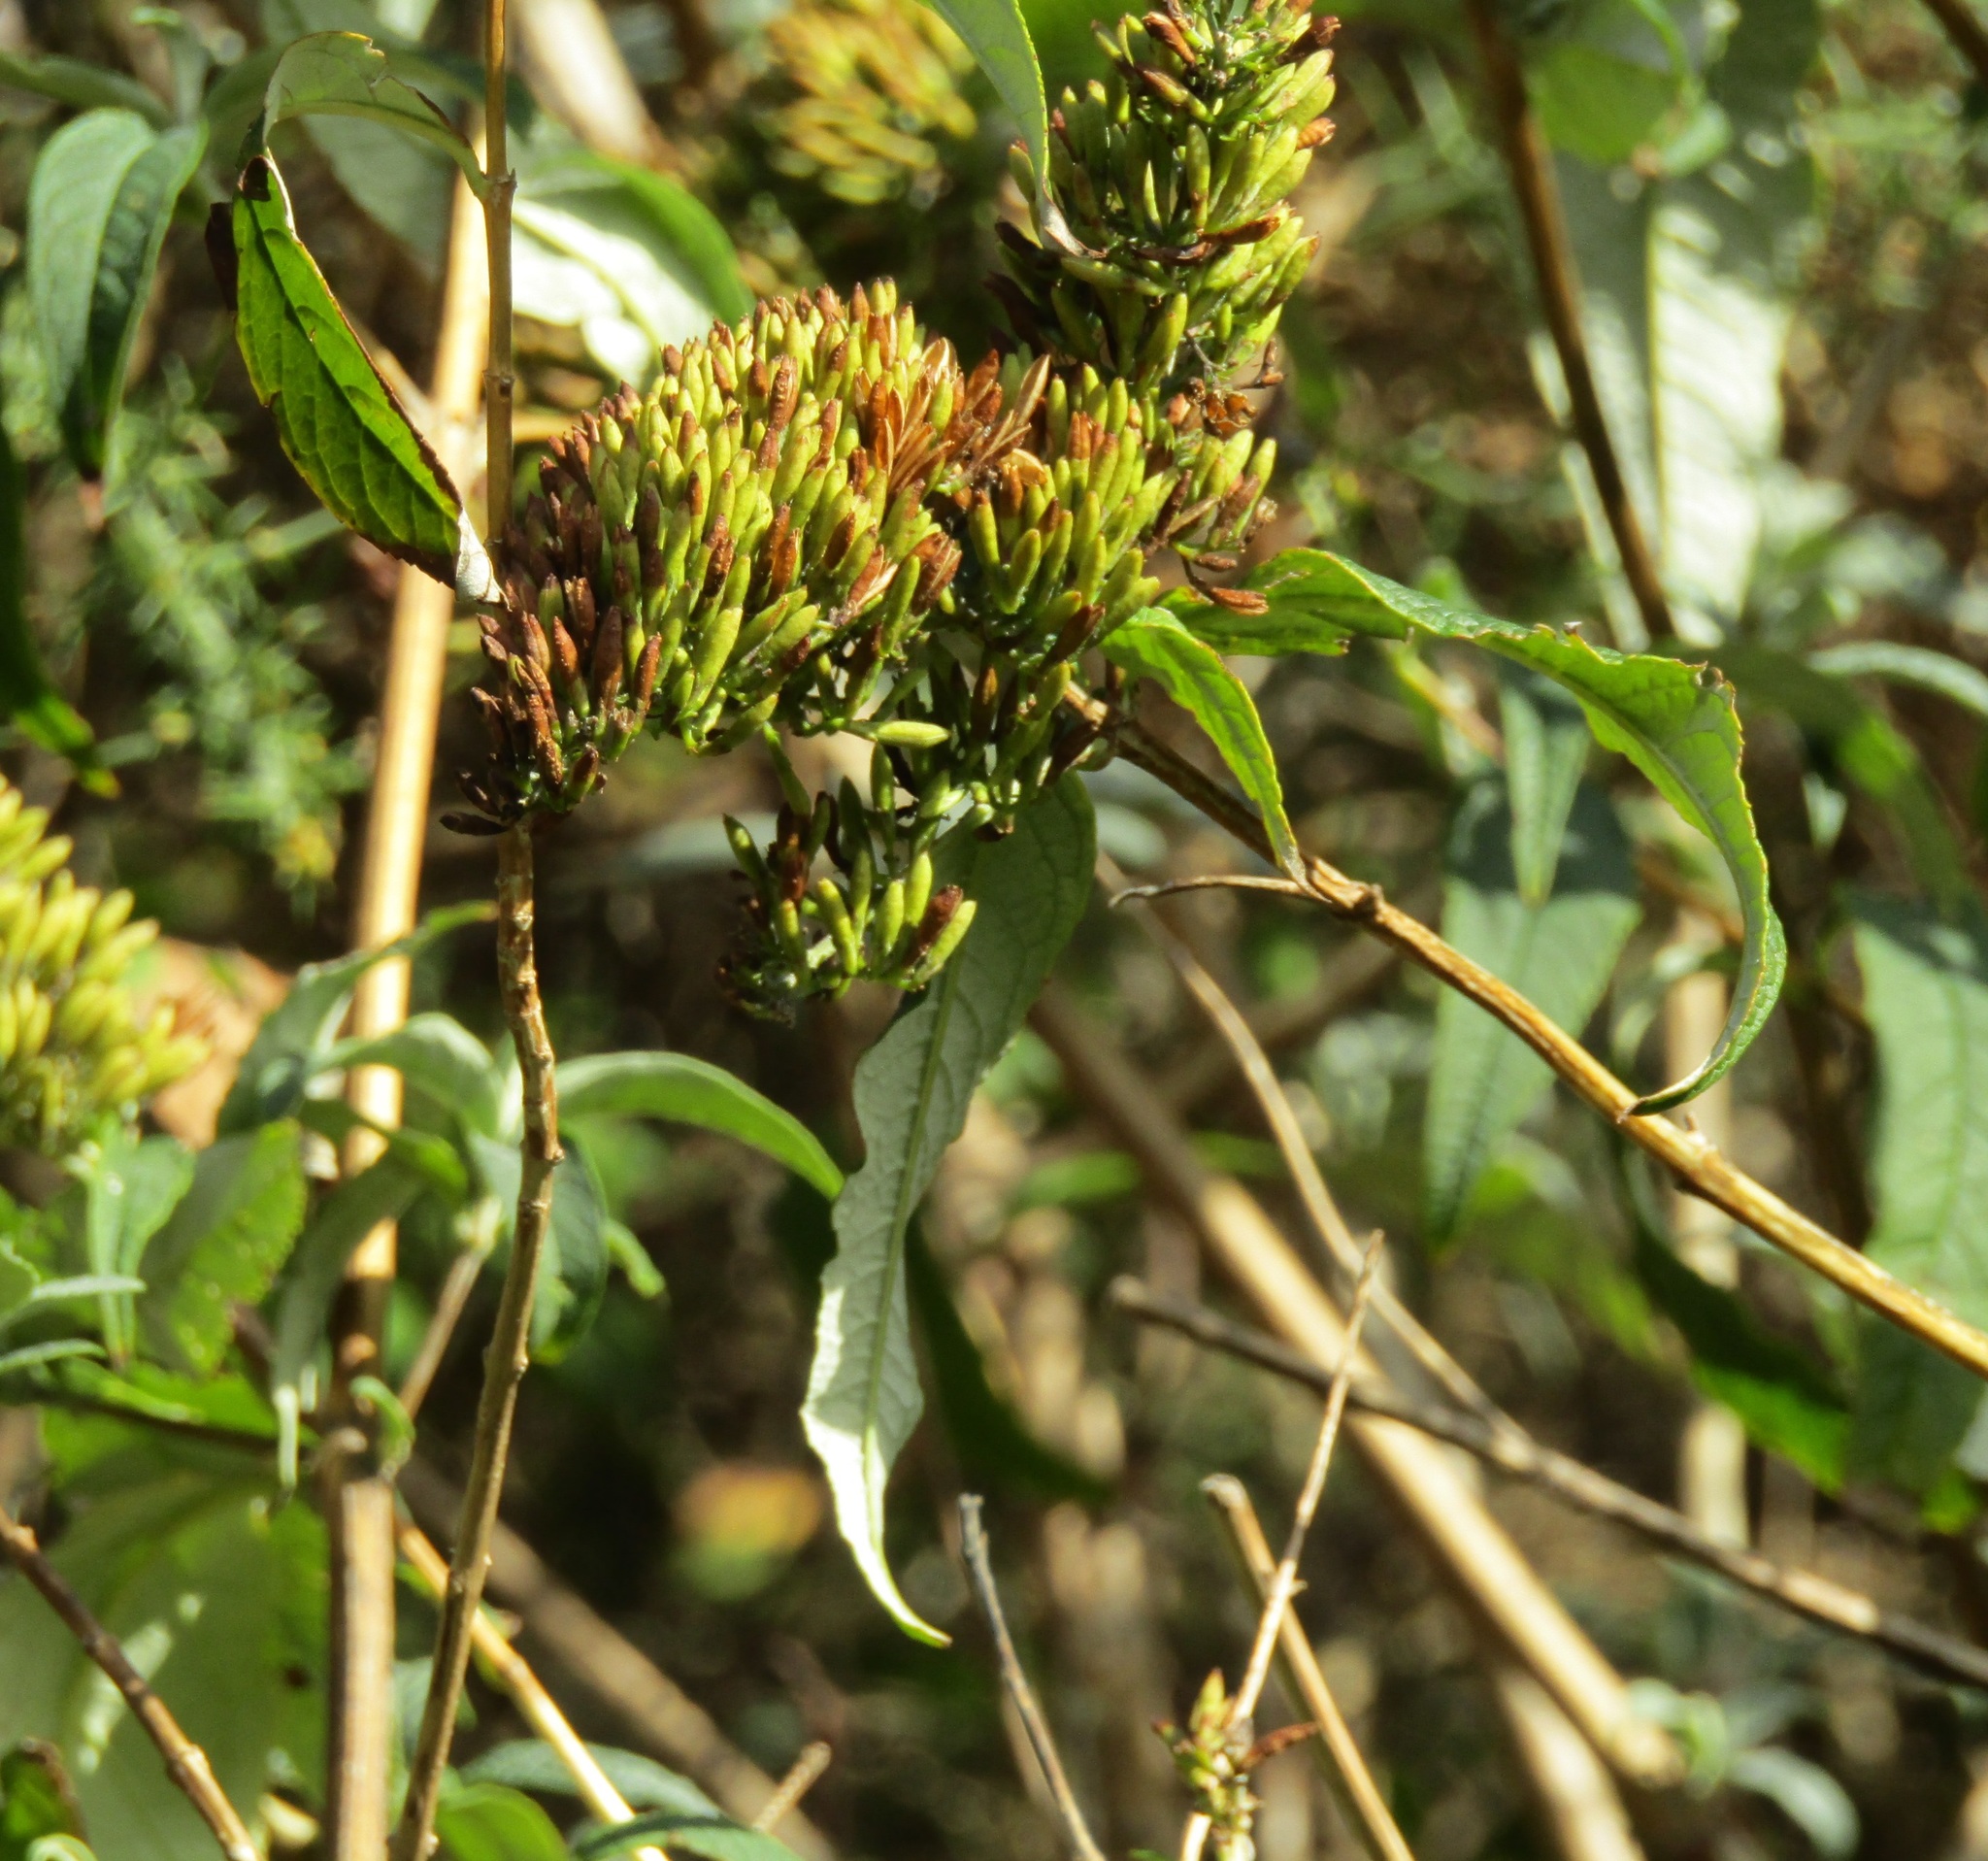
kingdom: Plantae
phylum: Tracheophyta
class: Magnoliopsida
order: Lamiales
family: Scrophulariaceae
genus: Buddleja
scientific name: Buddleja davidii
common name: Butterfly-bush
